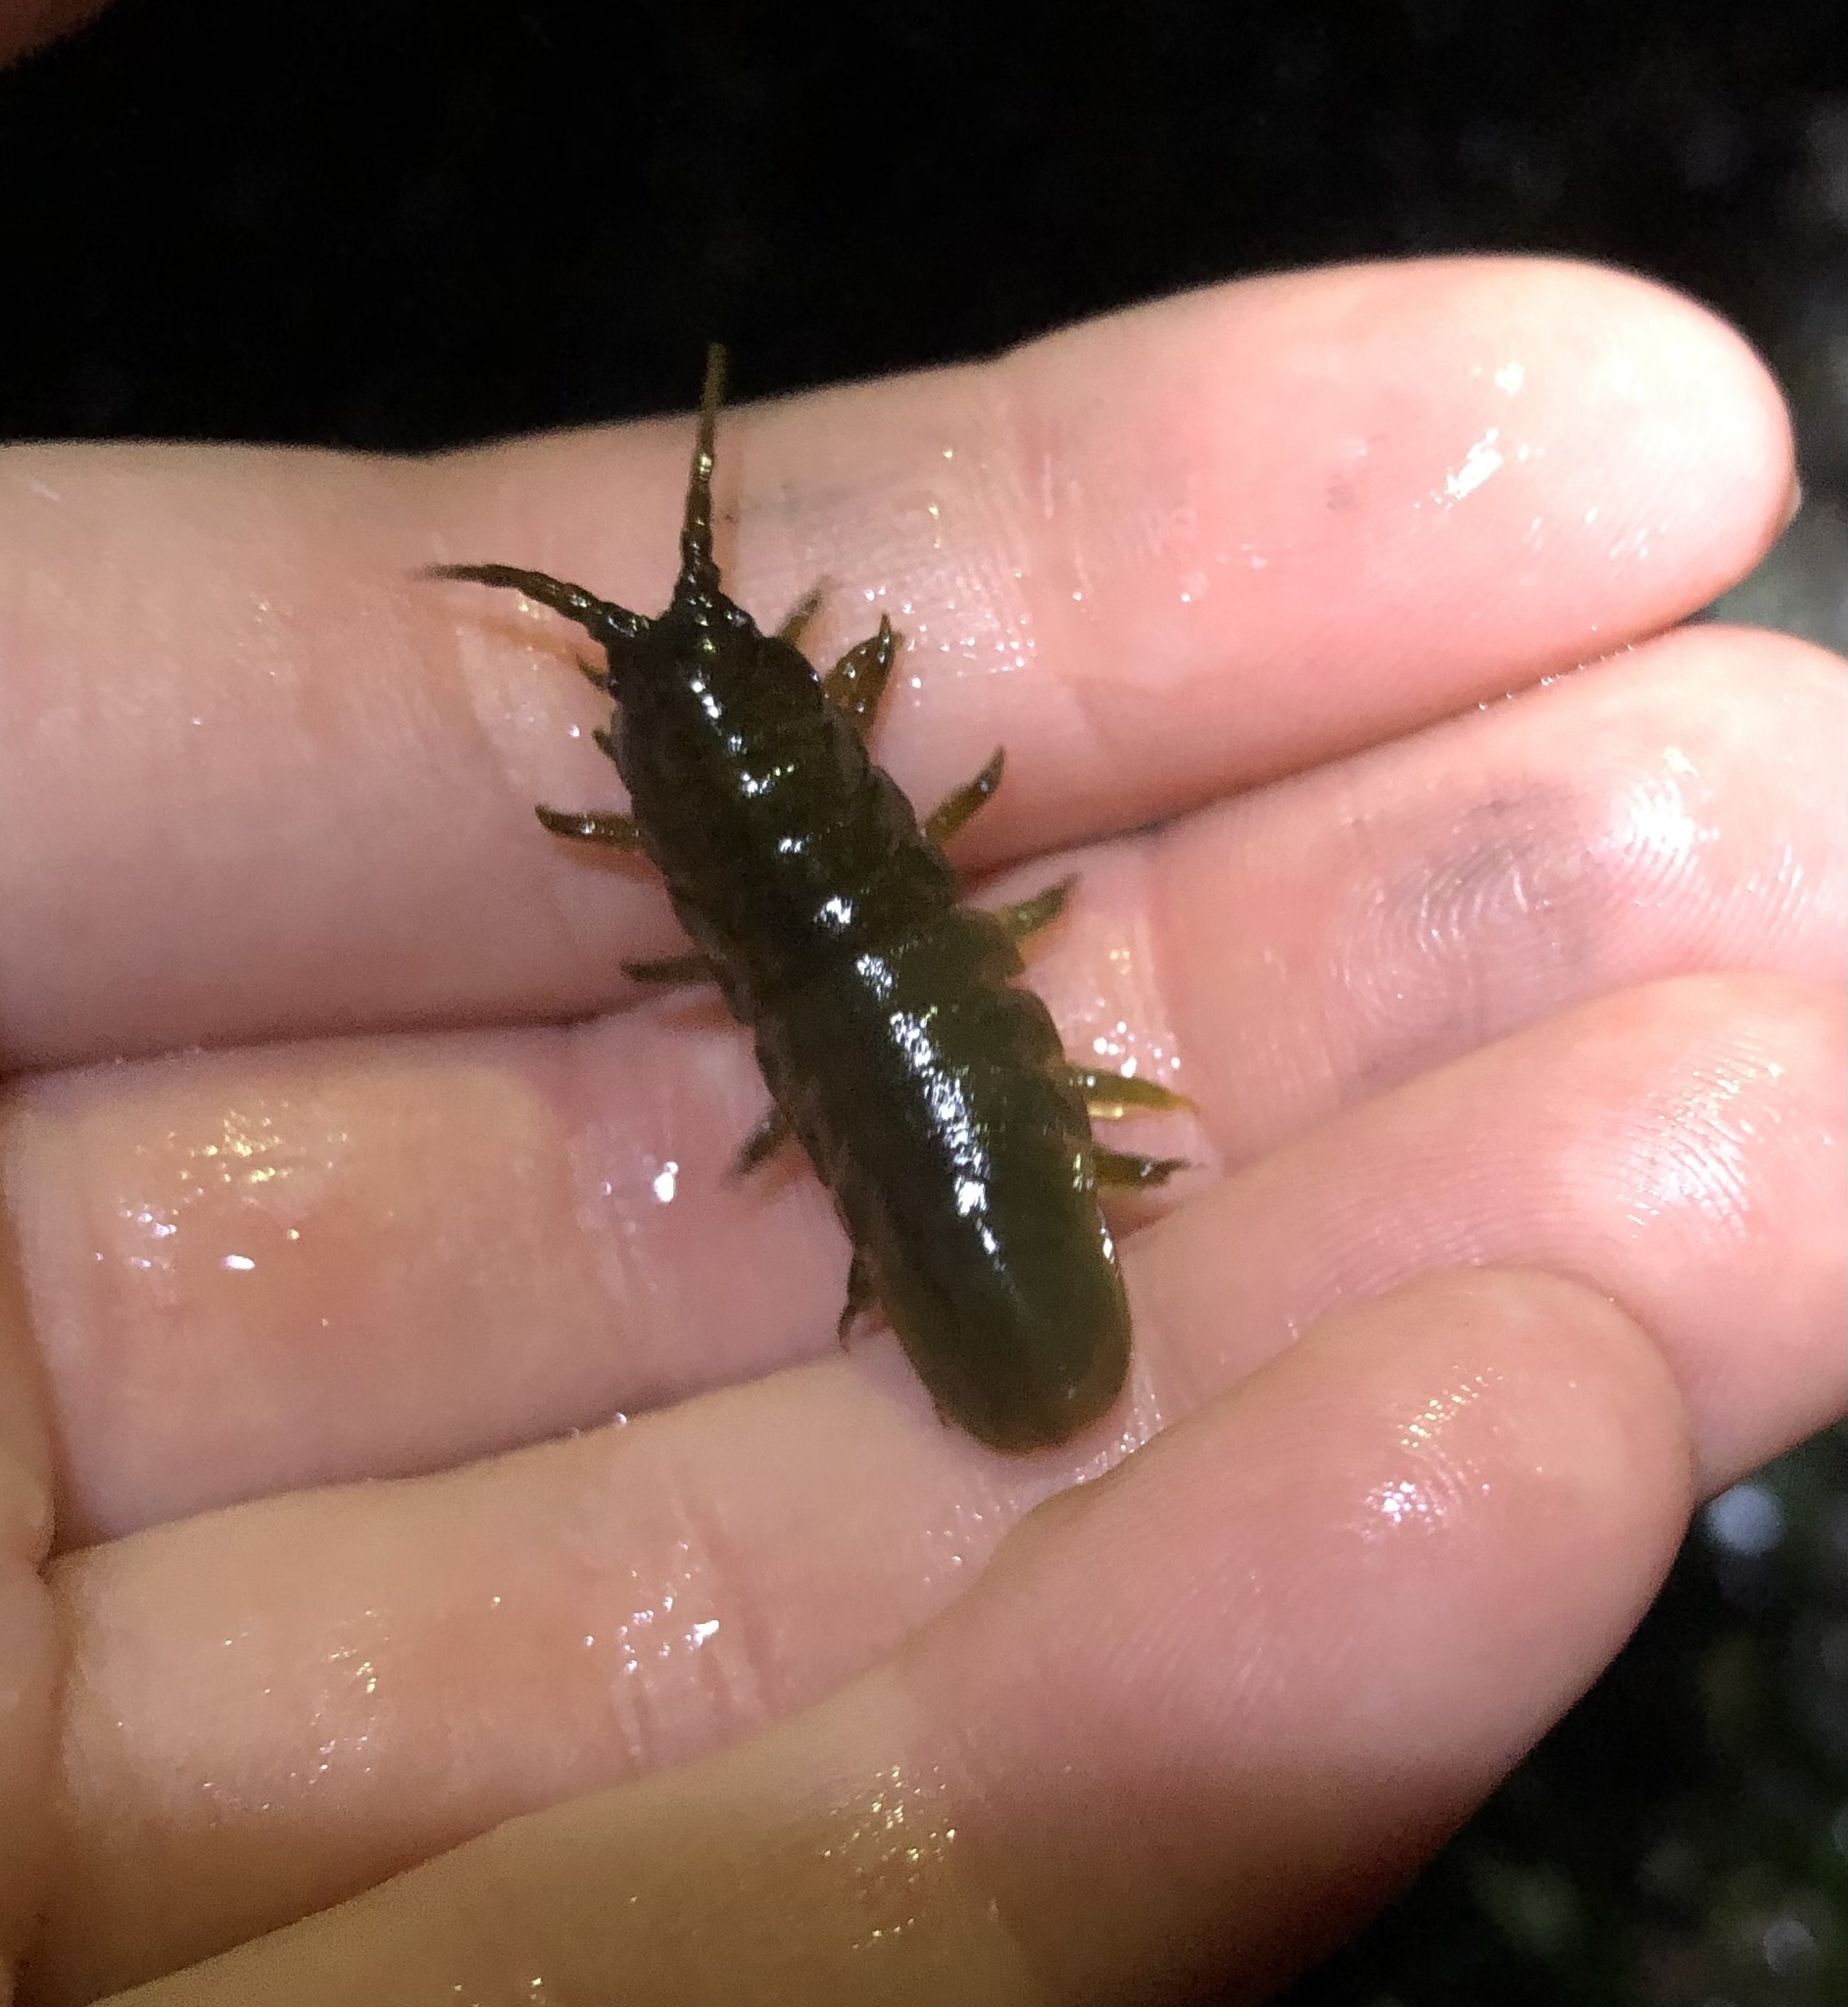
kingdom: Animalia
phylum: Arthropoda
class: Malacostraca
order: Isopoda
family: Idoteidae
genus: Pentidotea
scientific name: Pentidotea wosnesenskii
